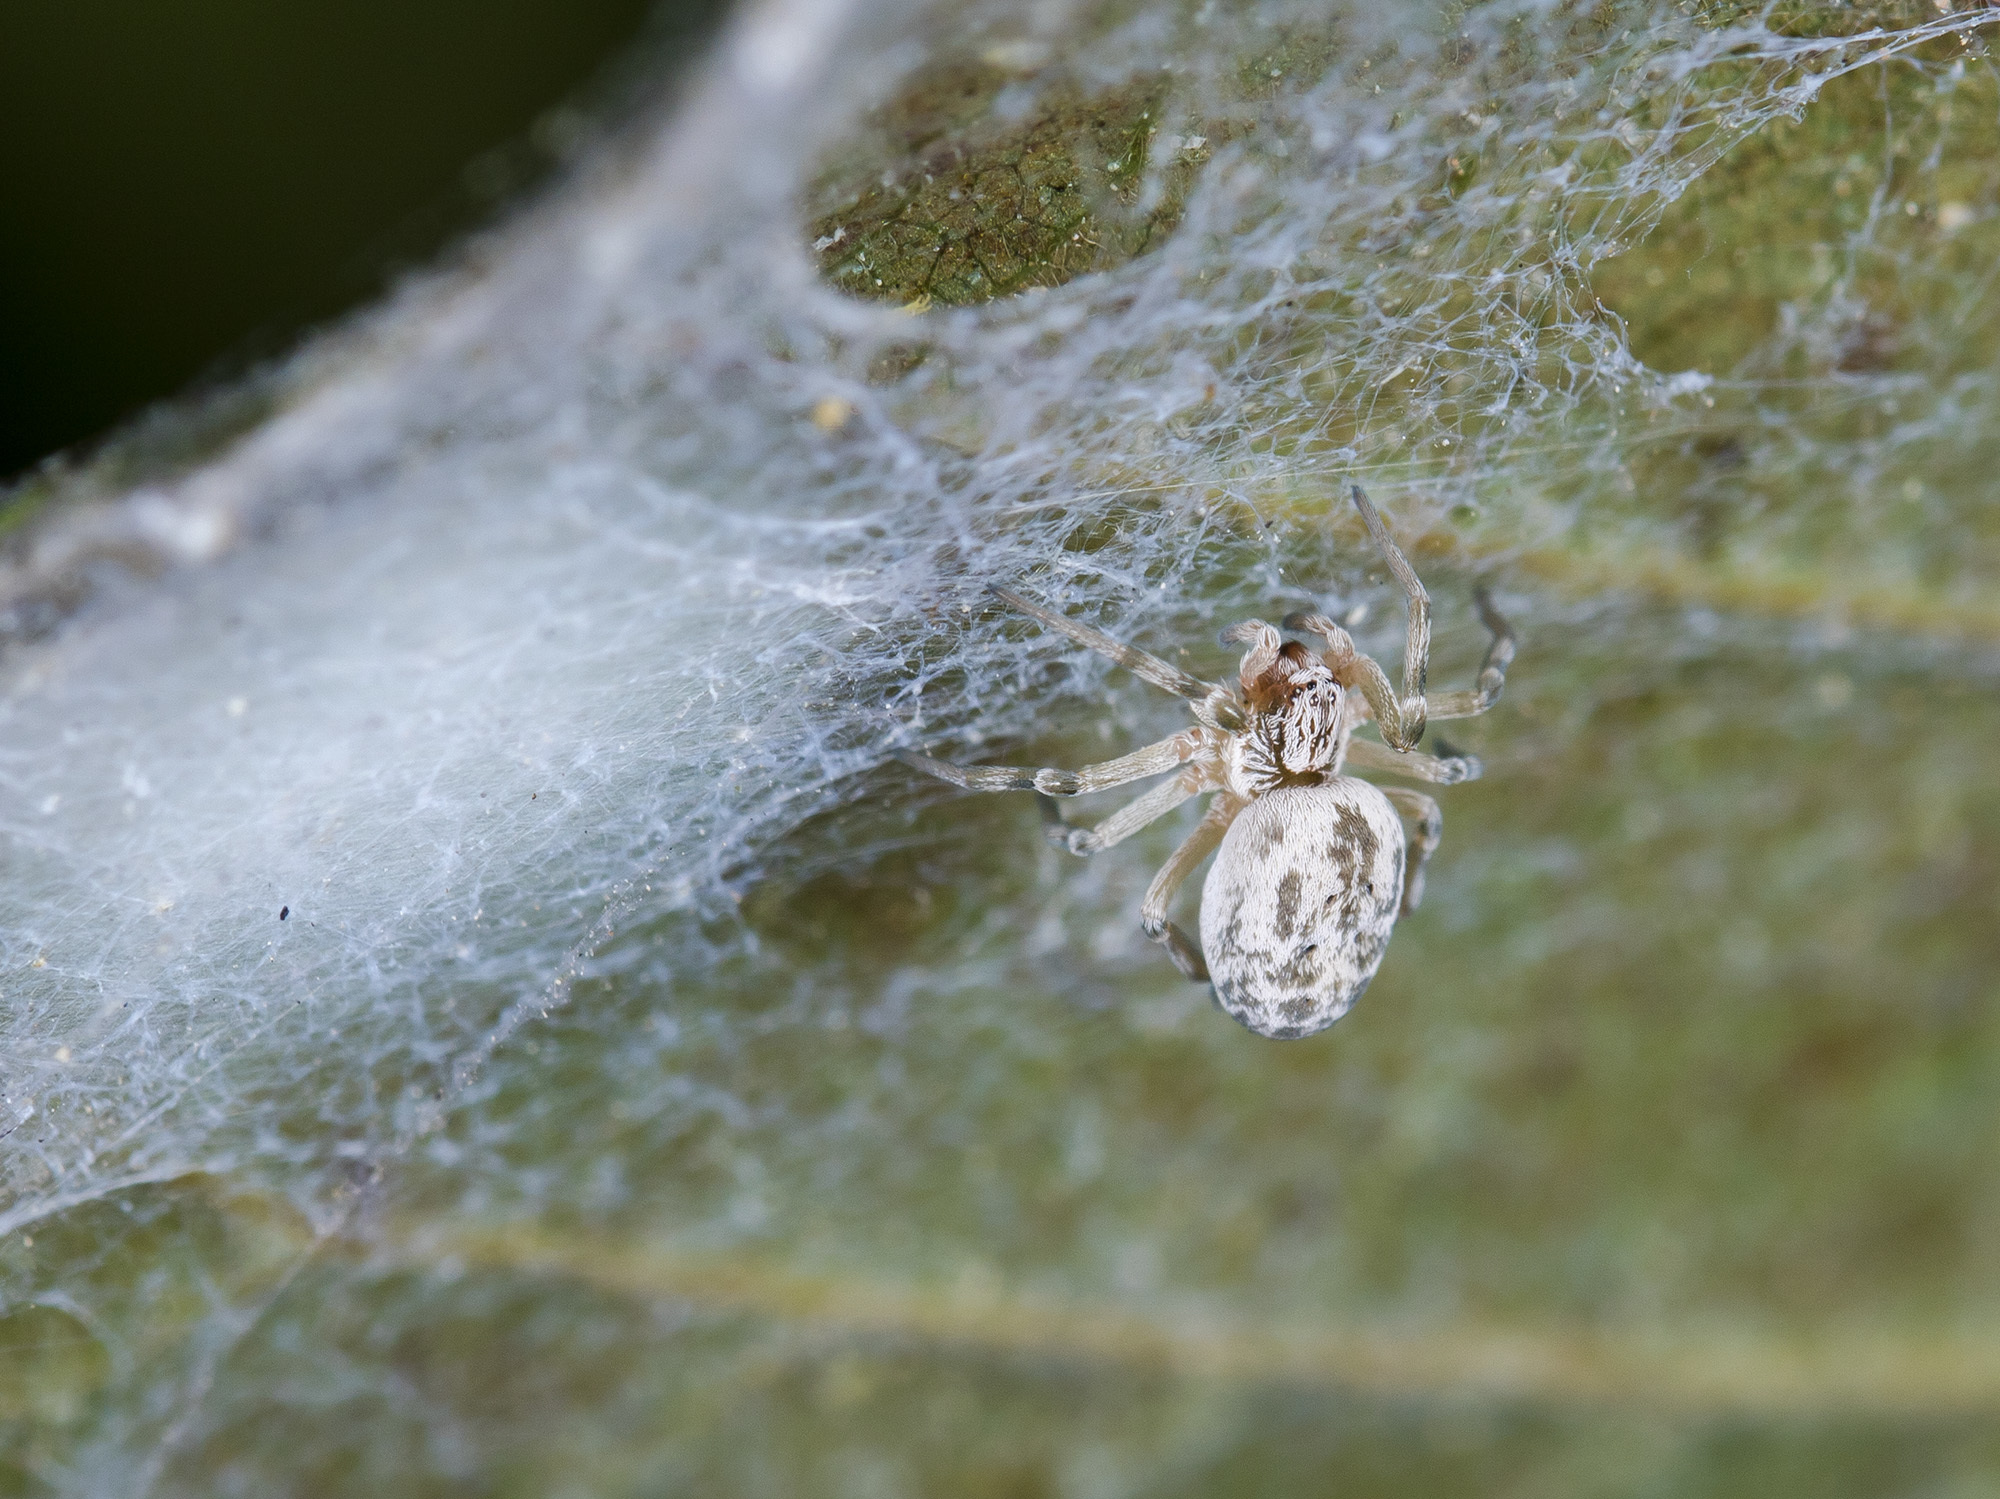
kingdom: Animalia
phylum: Arthropoda
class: Arachnida
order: Araneae
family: Dictynidae
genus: Dictynomorpha
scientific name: Dictynomorpha strandi
